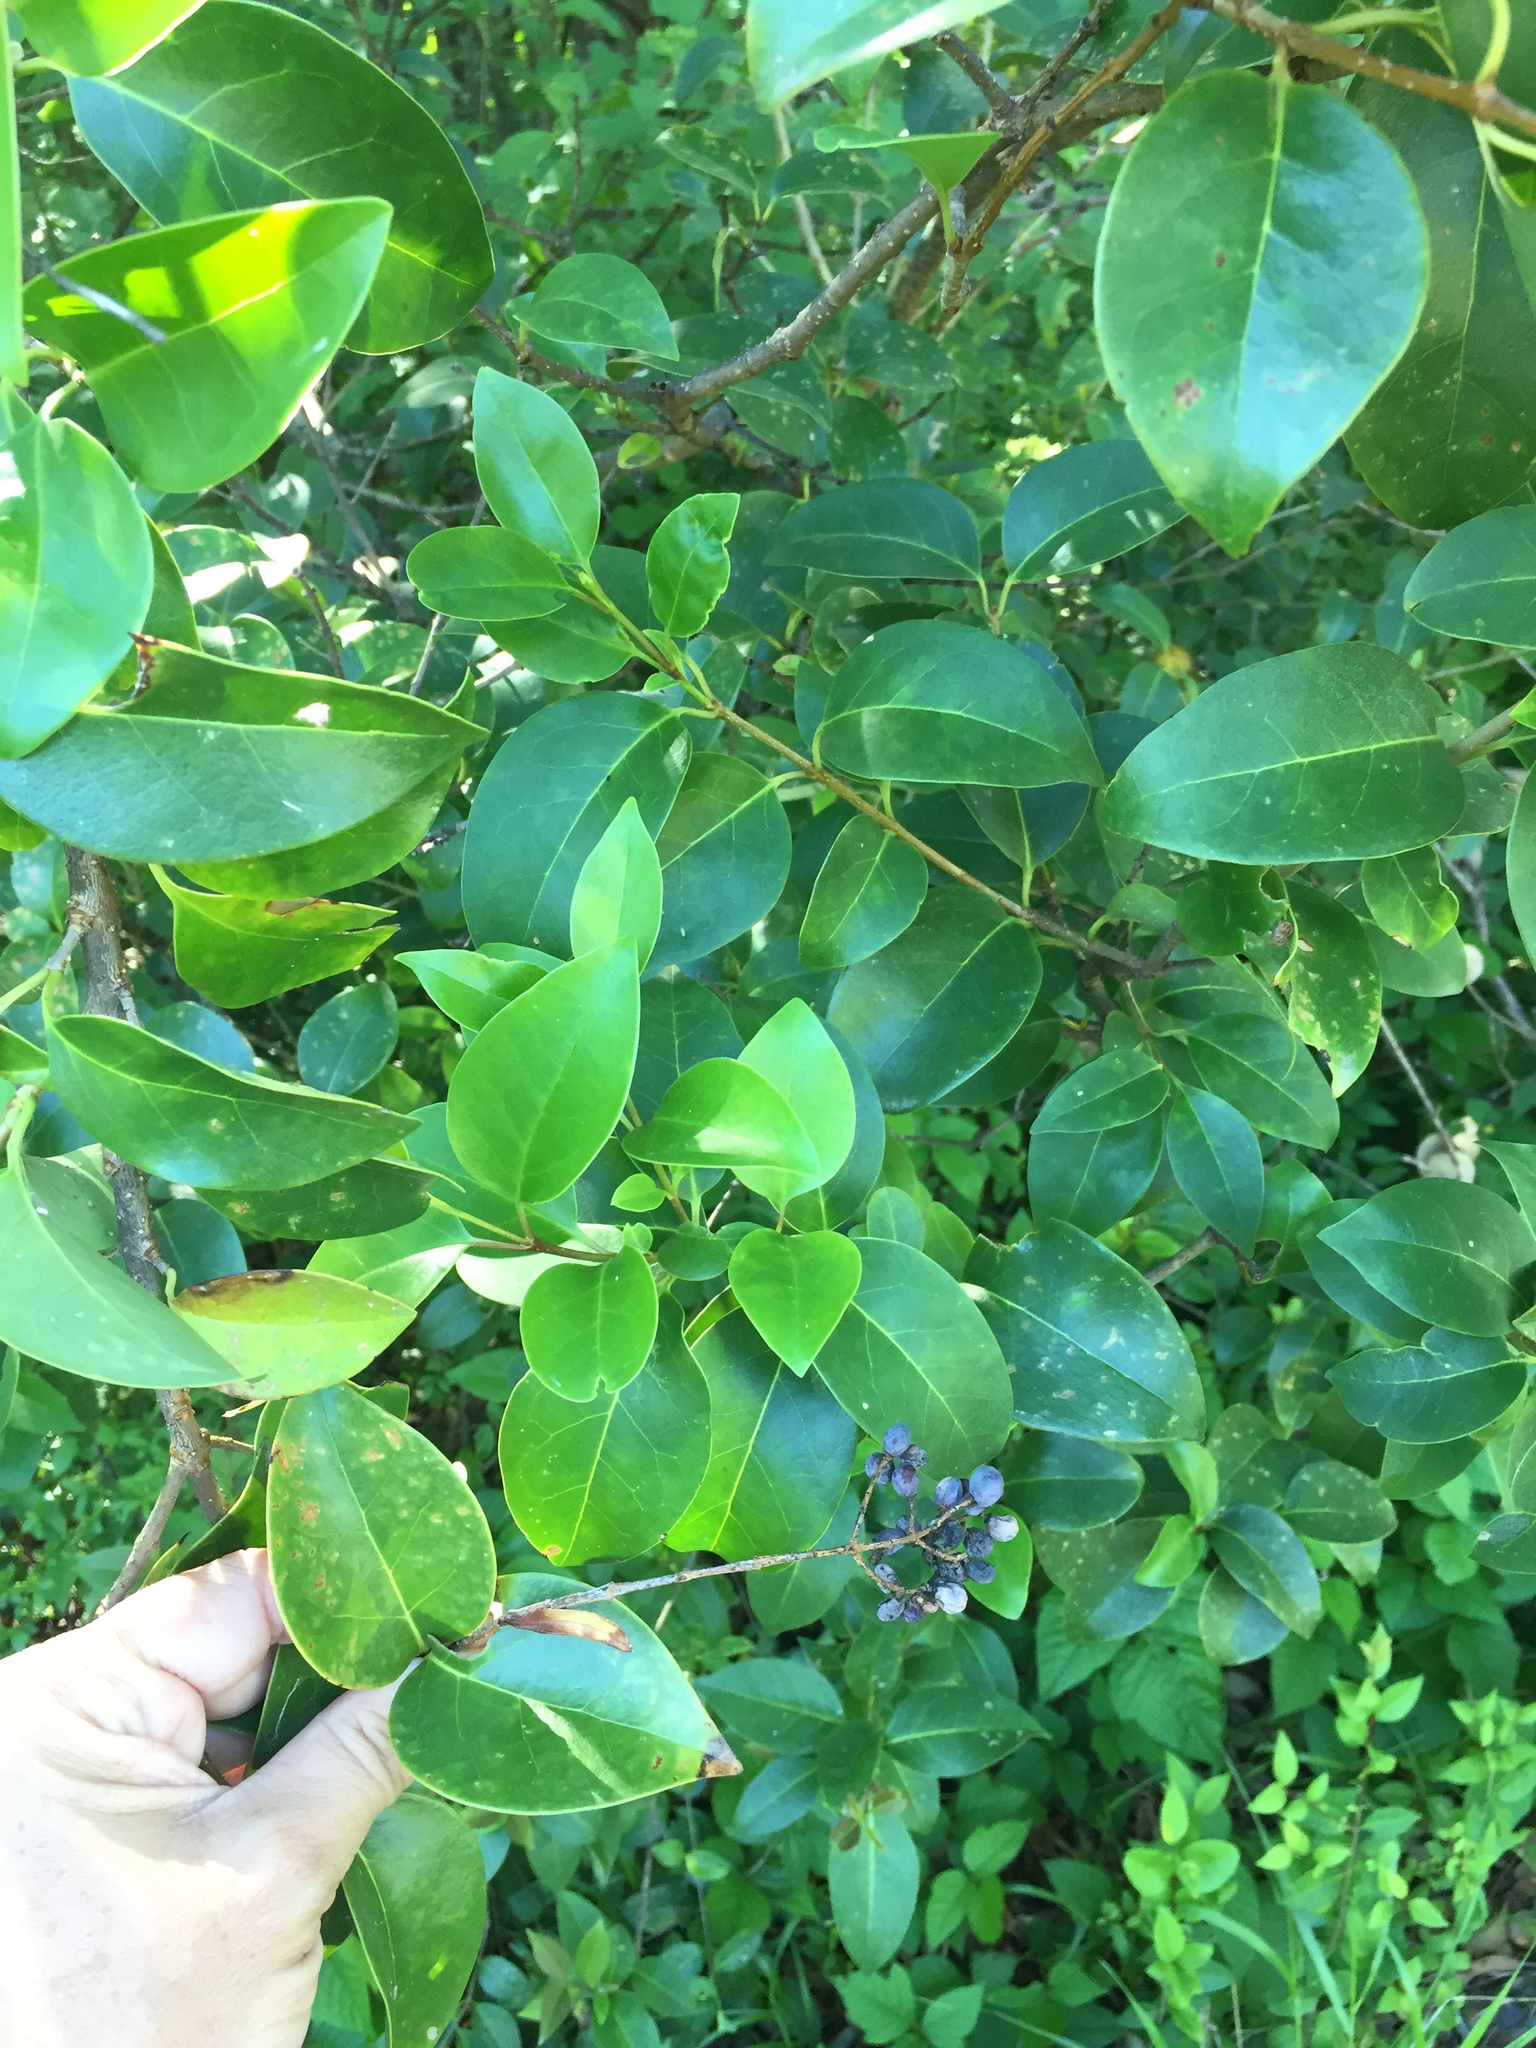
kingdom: Plantae
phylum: Tracheophyta
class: Magnoliopsida
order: Lamiales
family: Oleaceae
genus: Ligustrum
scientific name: Ligustrum lucidum
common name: Glossy privet
